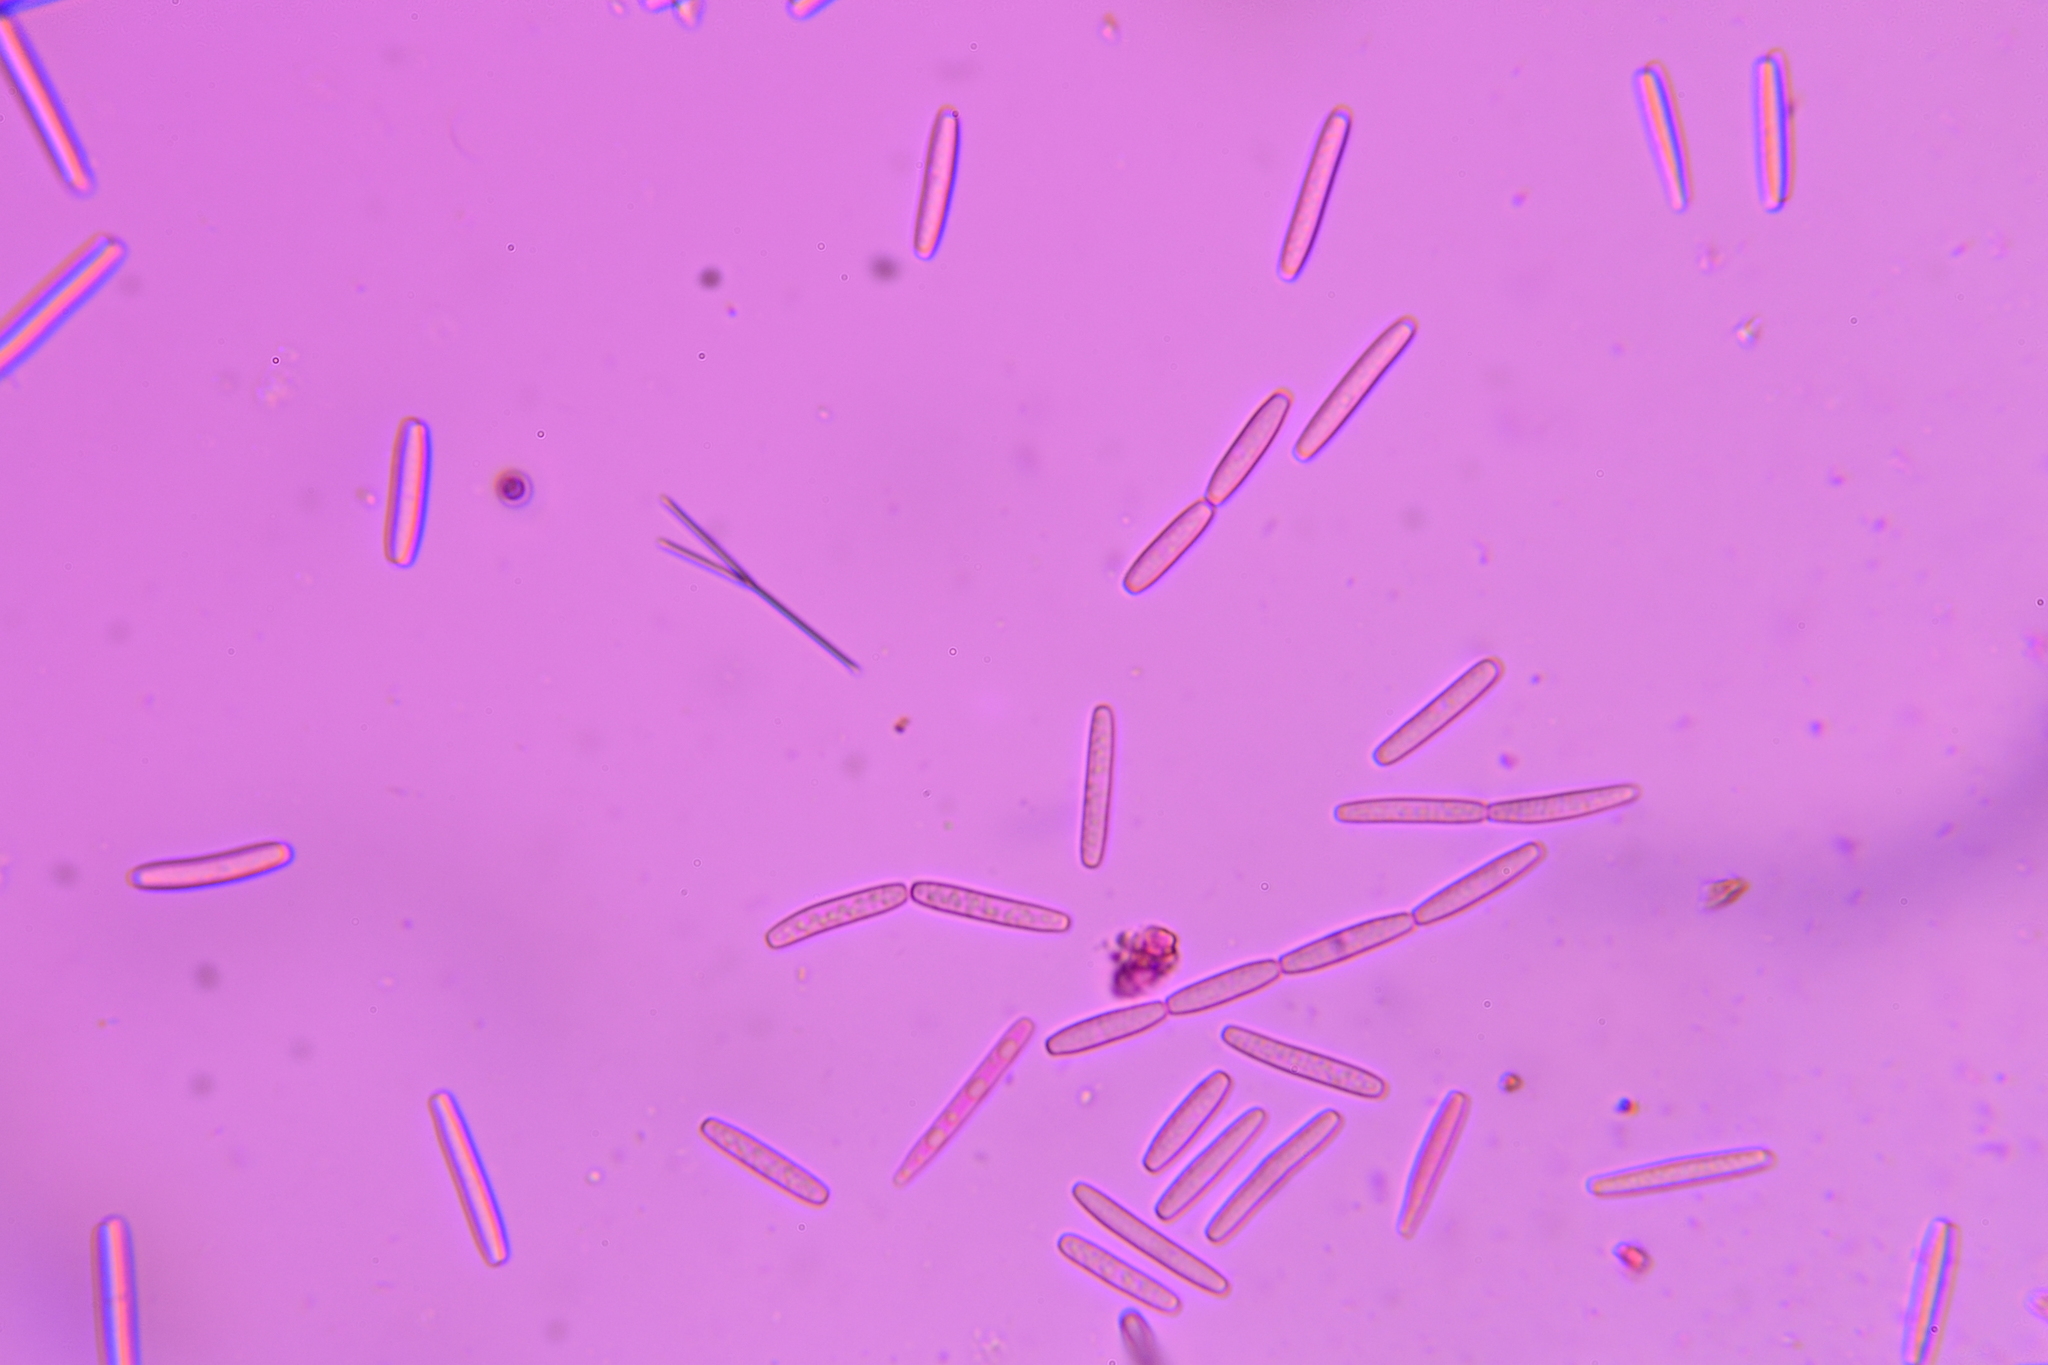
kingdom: Fungi
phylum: Ascomycota
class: Sordariomycetes
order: Hypocreales
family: Ophiocordycipitaceae
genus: Tolypocladium
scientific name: Tolypocladium capitatum
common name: Capitate truffleclub
